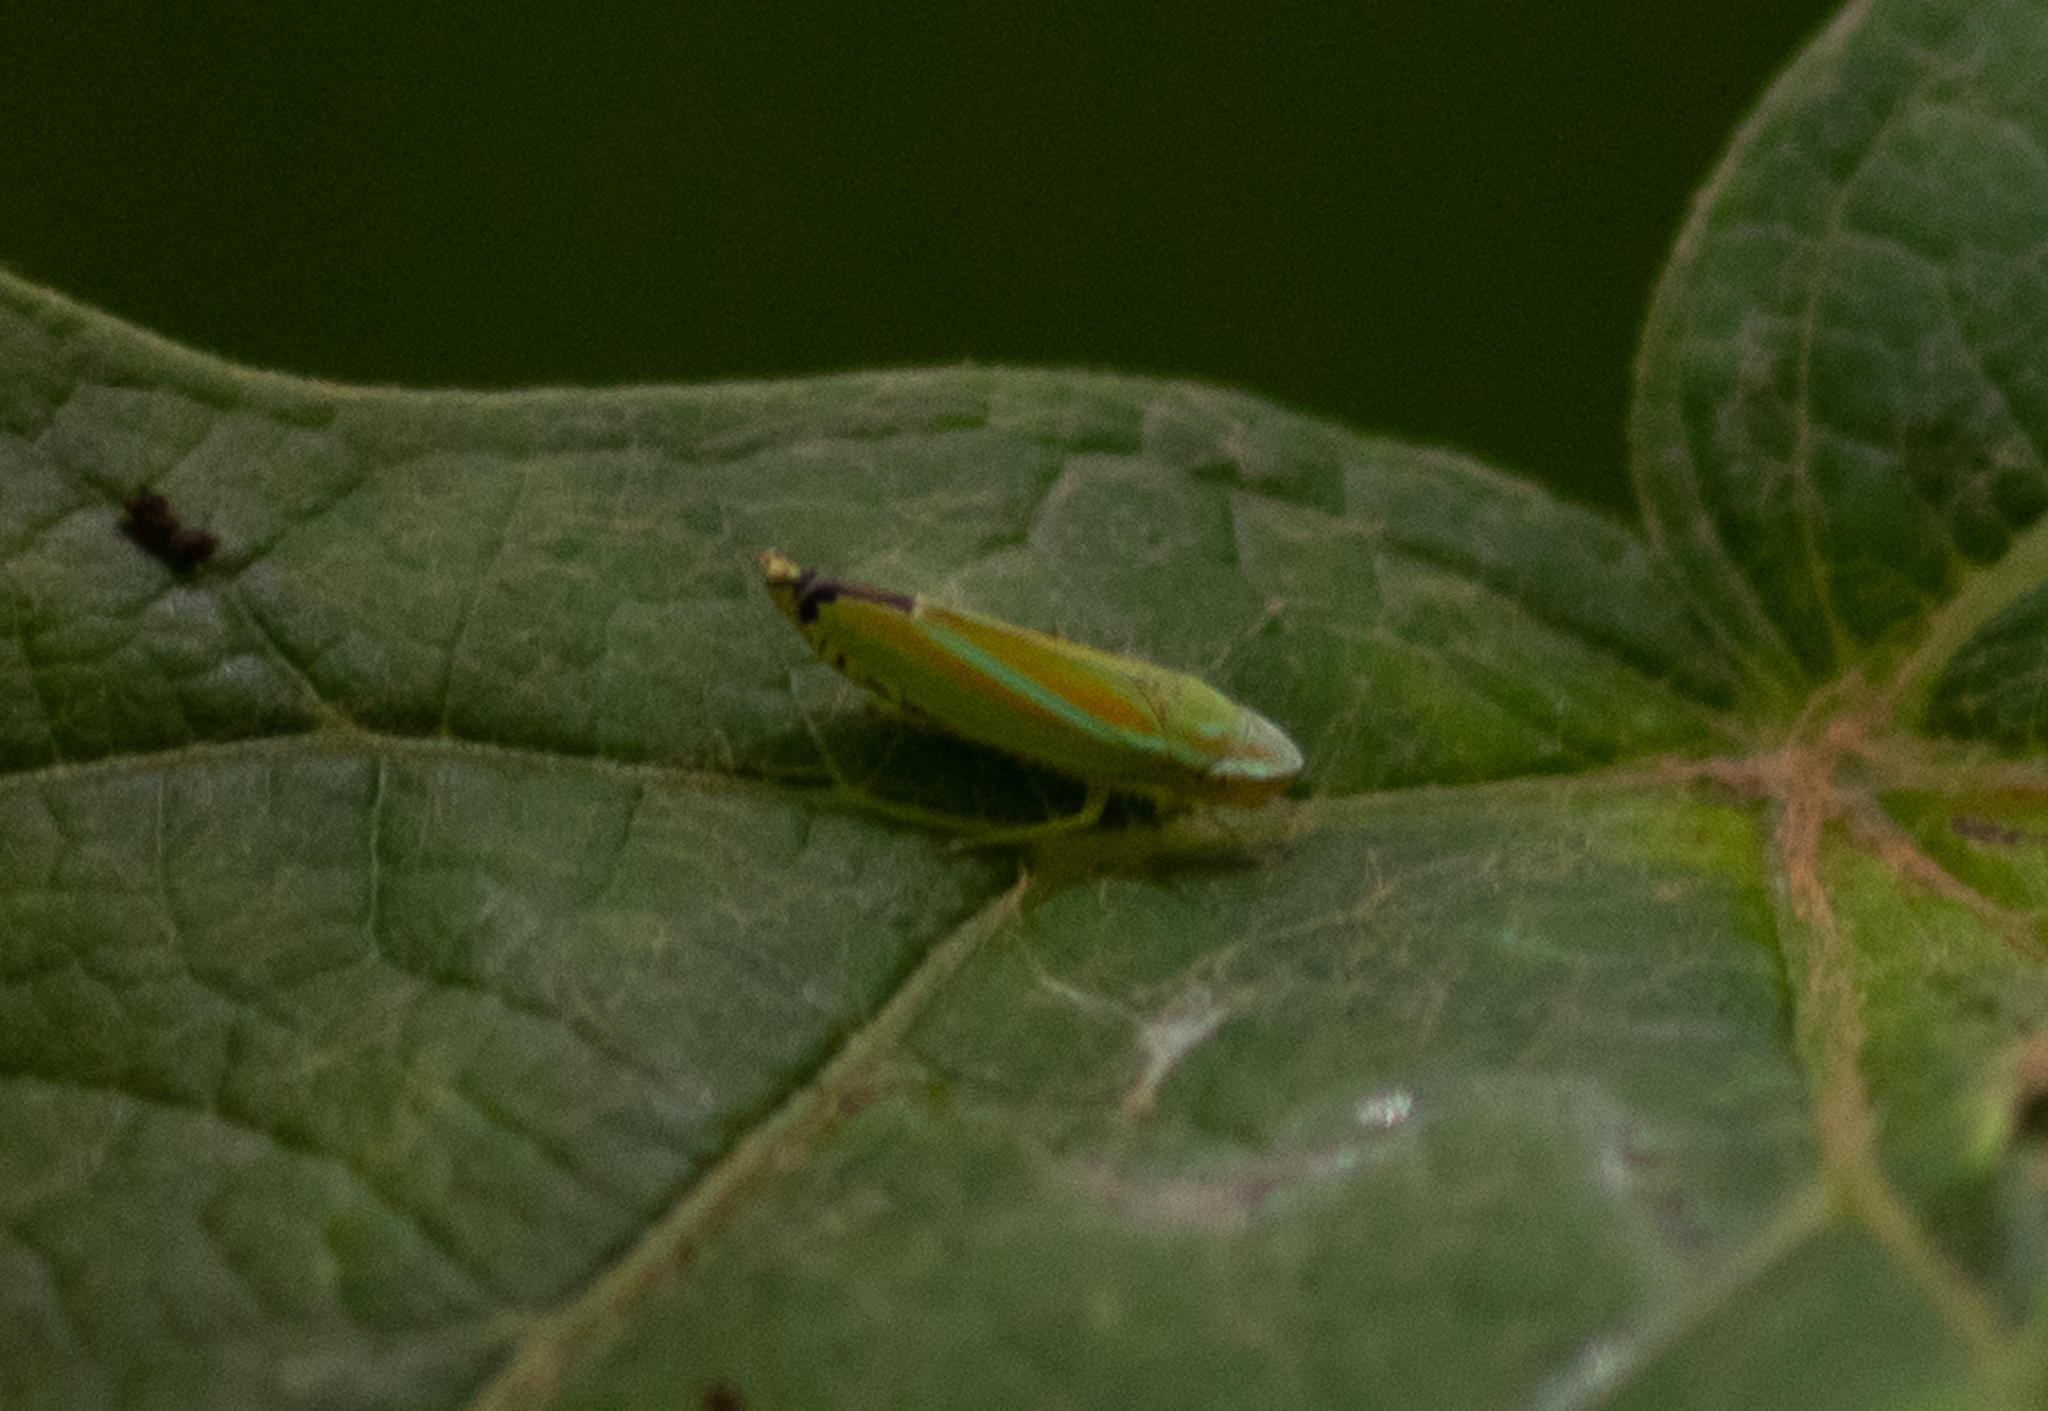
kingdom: Animalia
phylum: Arthropoda
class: Insecta
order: Hemiptera
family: Cicadellidae
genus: Graphocephala
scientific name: Graphocephala versuta
